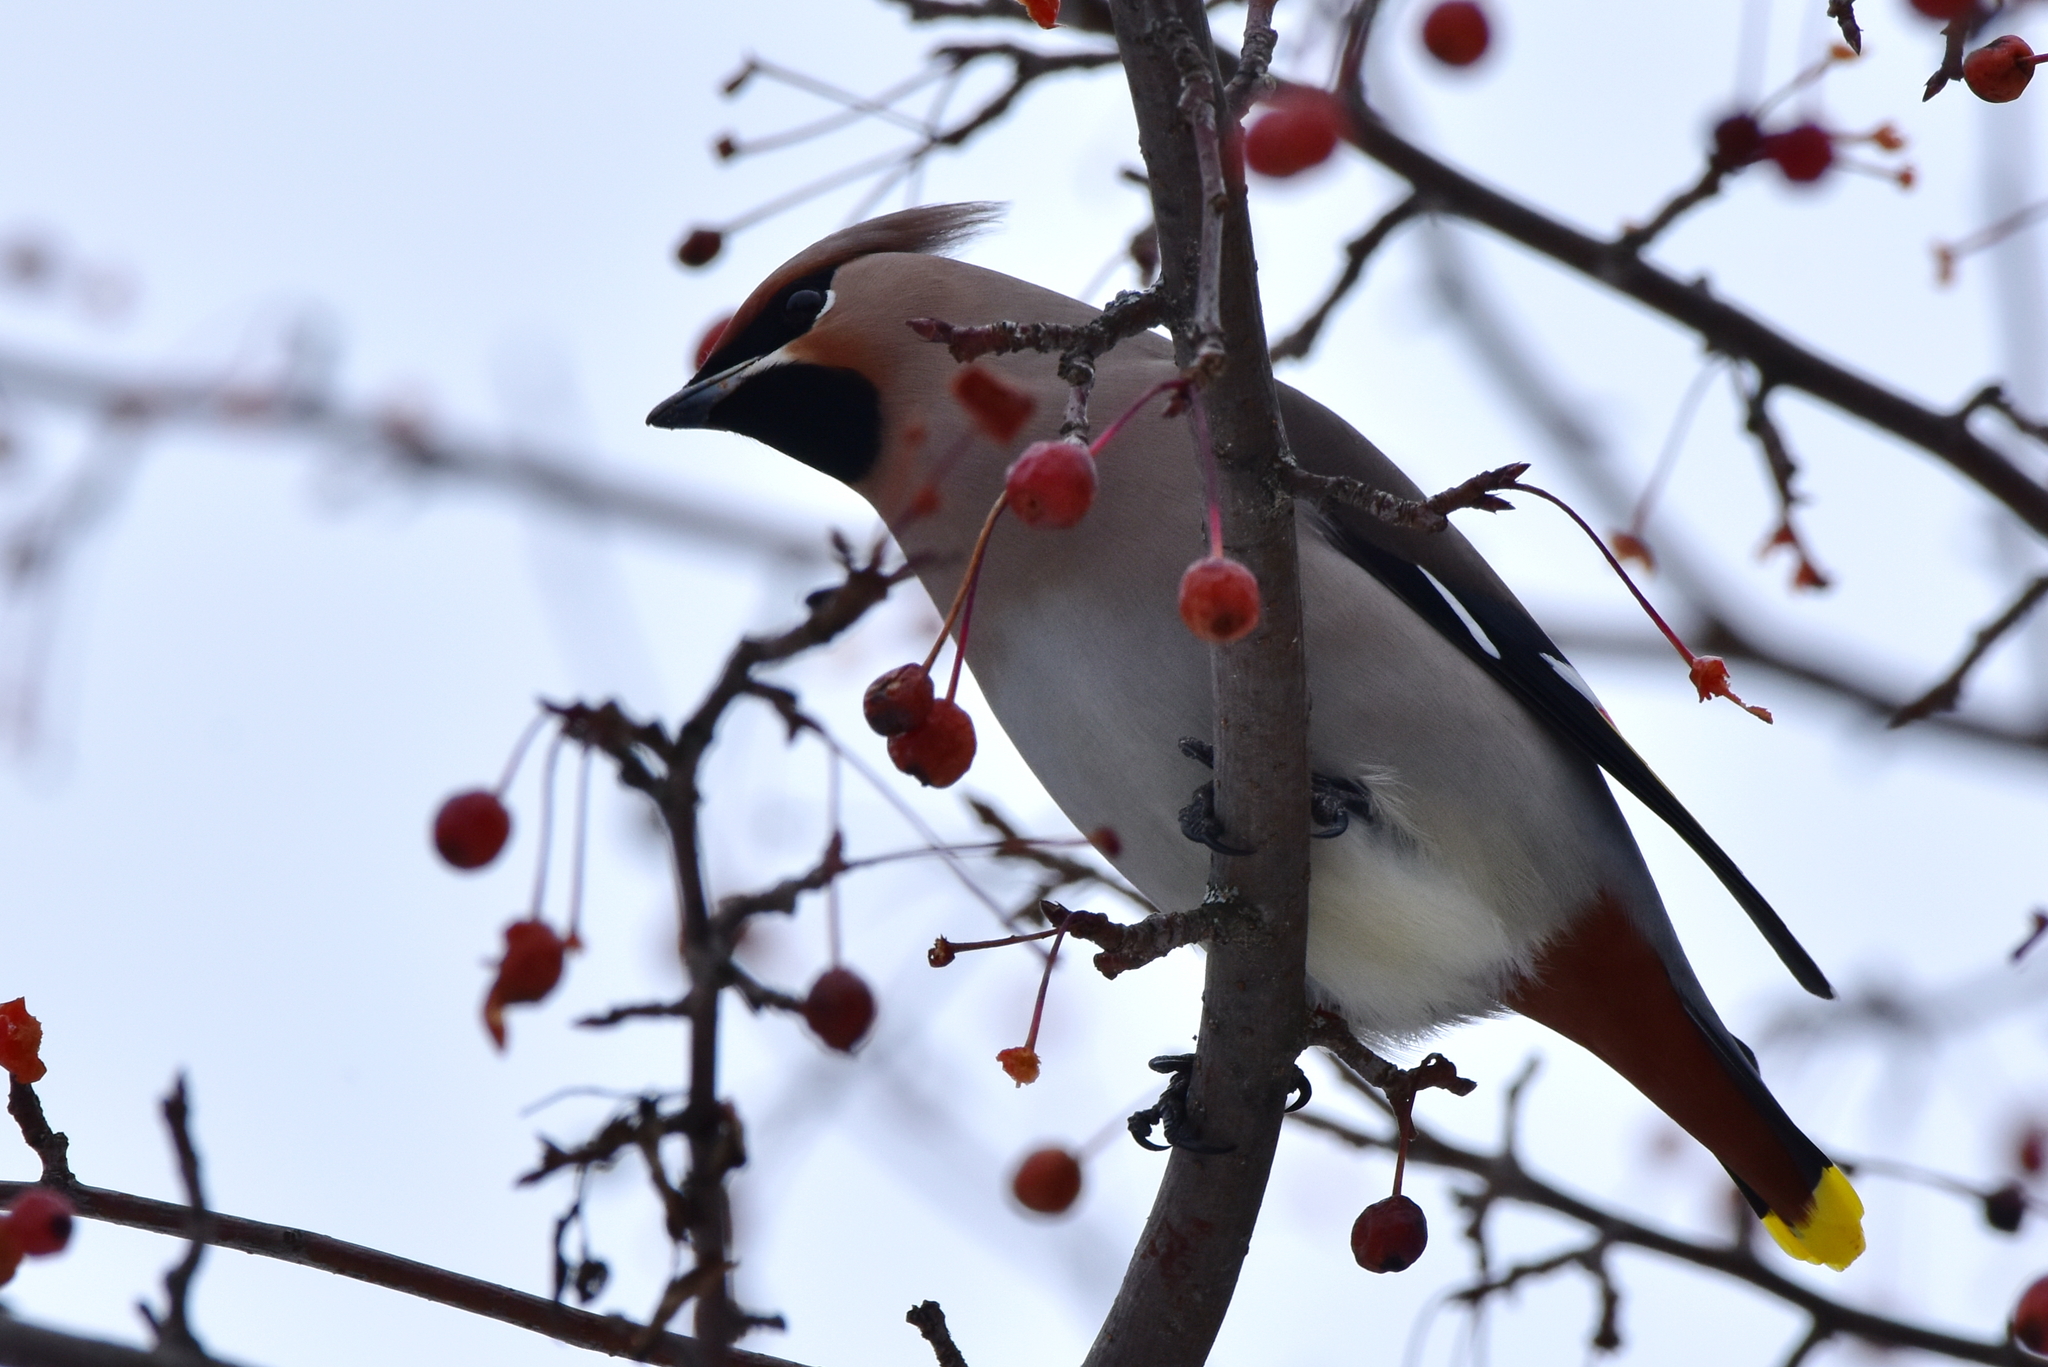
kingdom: Animalia
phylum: Chordata
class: Aves
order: Passeriformes
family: Bombycillidae
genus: Bombycilla
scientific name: Bombycilla garrulus
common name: Bohemian waxwing
